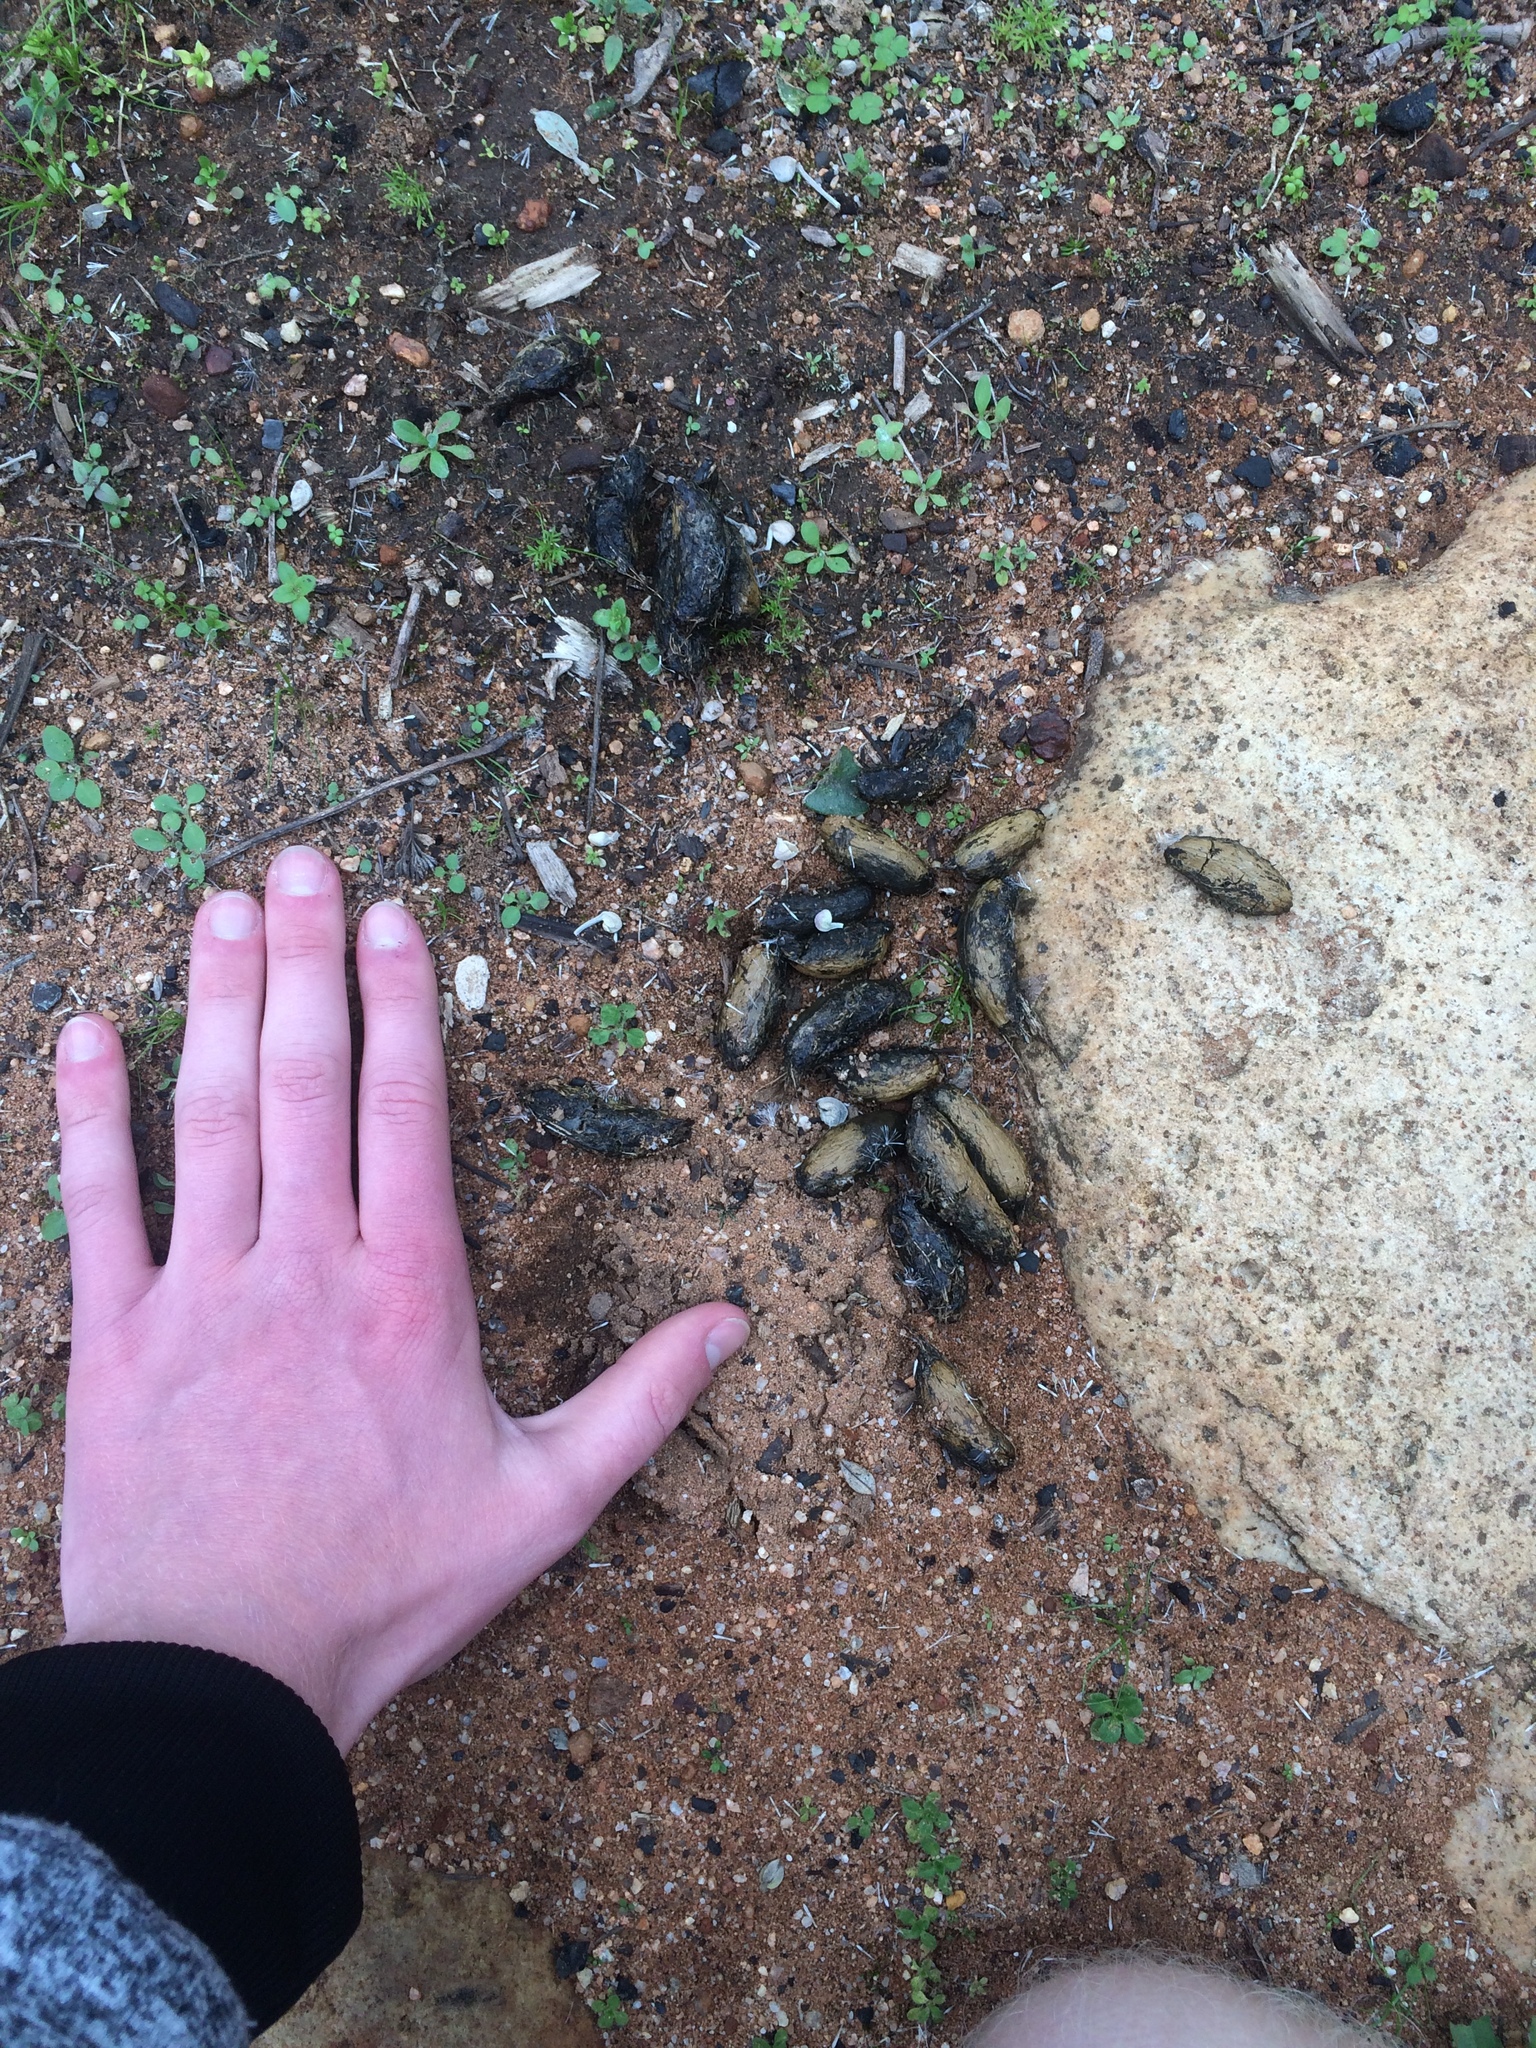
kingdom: Animalia
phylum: Chordata
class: Mammalia
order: Rodentia
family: Hystricidae
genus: Hystrix
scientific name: Hystrix africaeaustralis
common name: Cape porcupine
